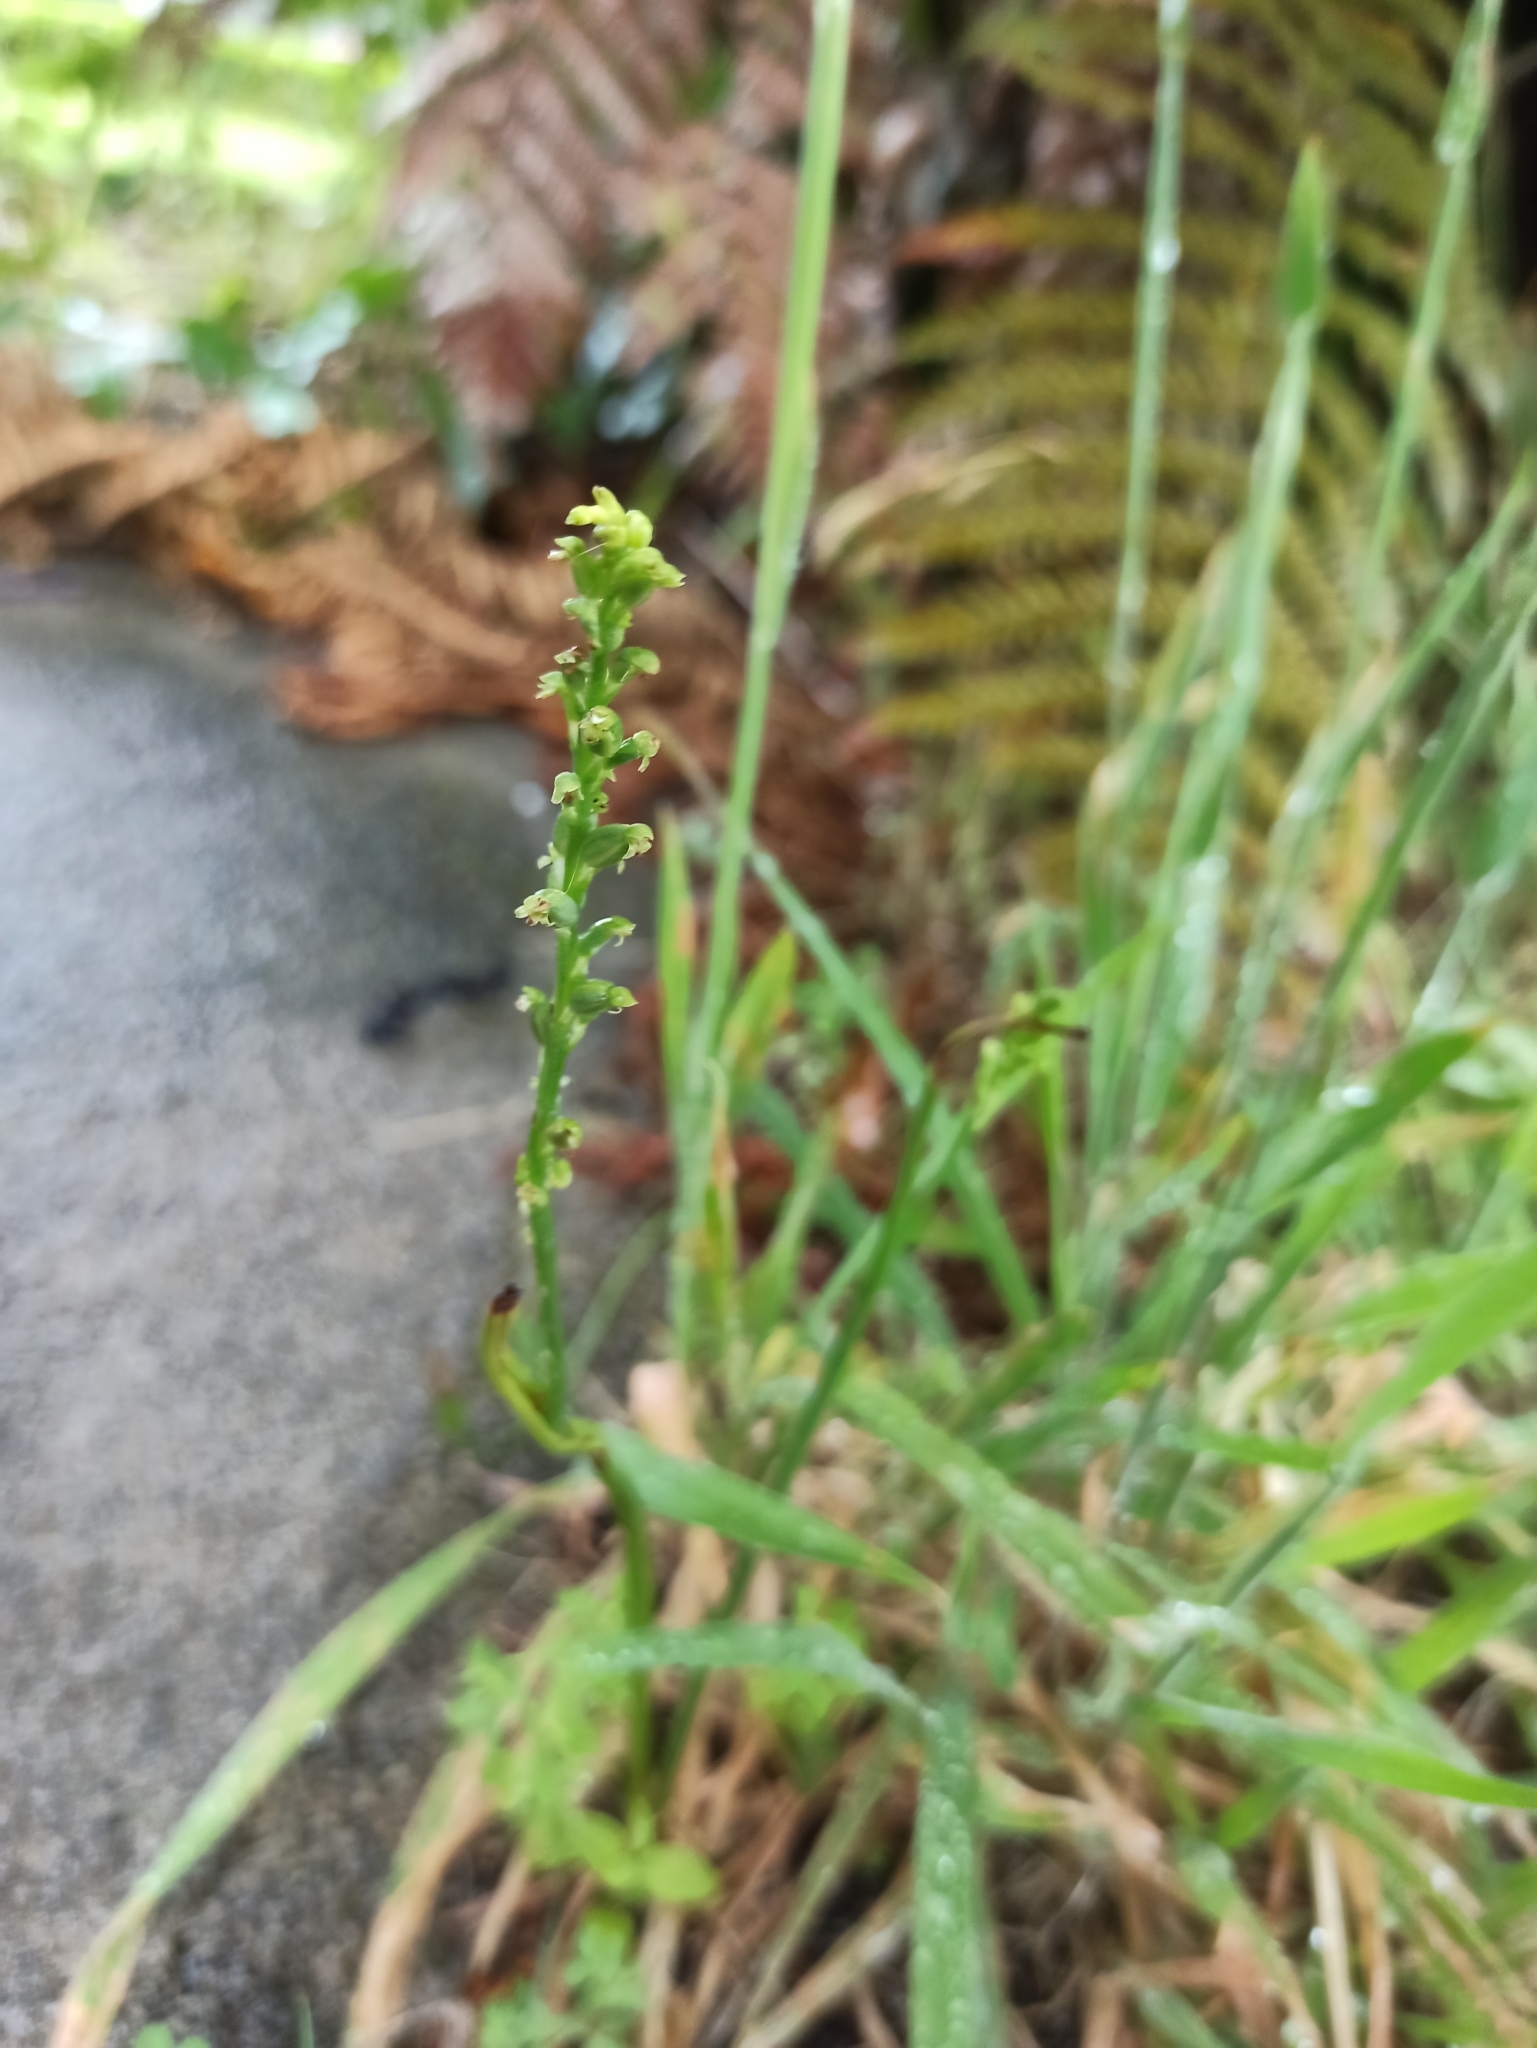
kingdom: Plantae
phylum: Tracheophyta
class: Liliopsida
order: Asparagales
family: Orchidaceae
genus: Microtis
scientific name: Microtis unifolia
